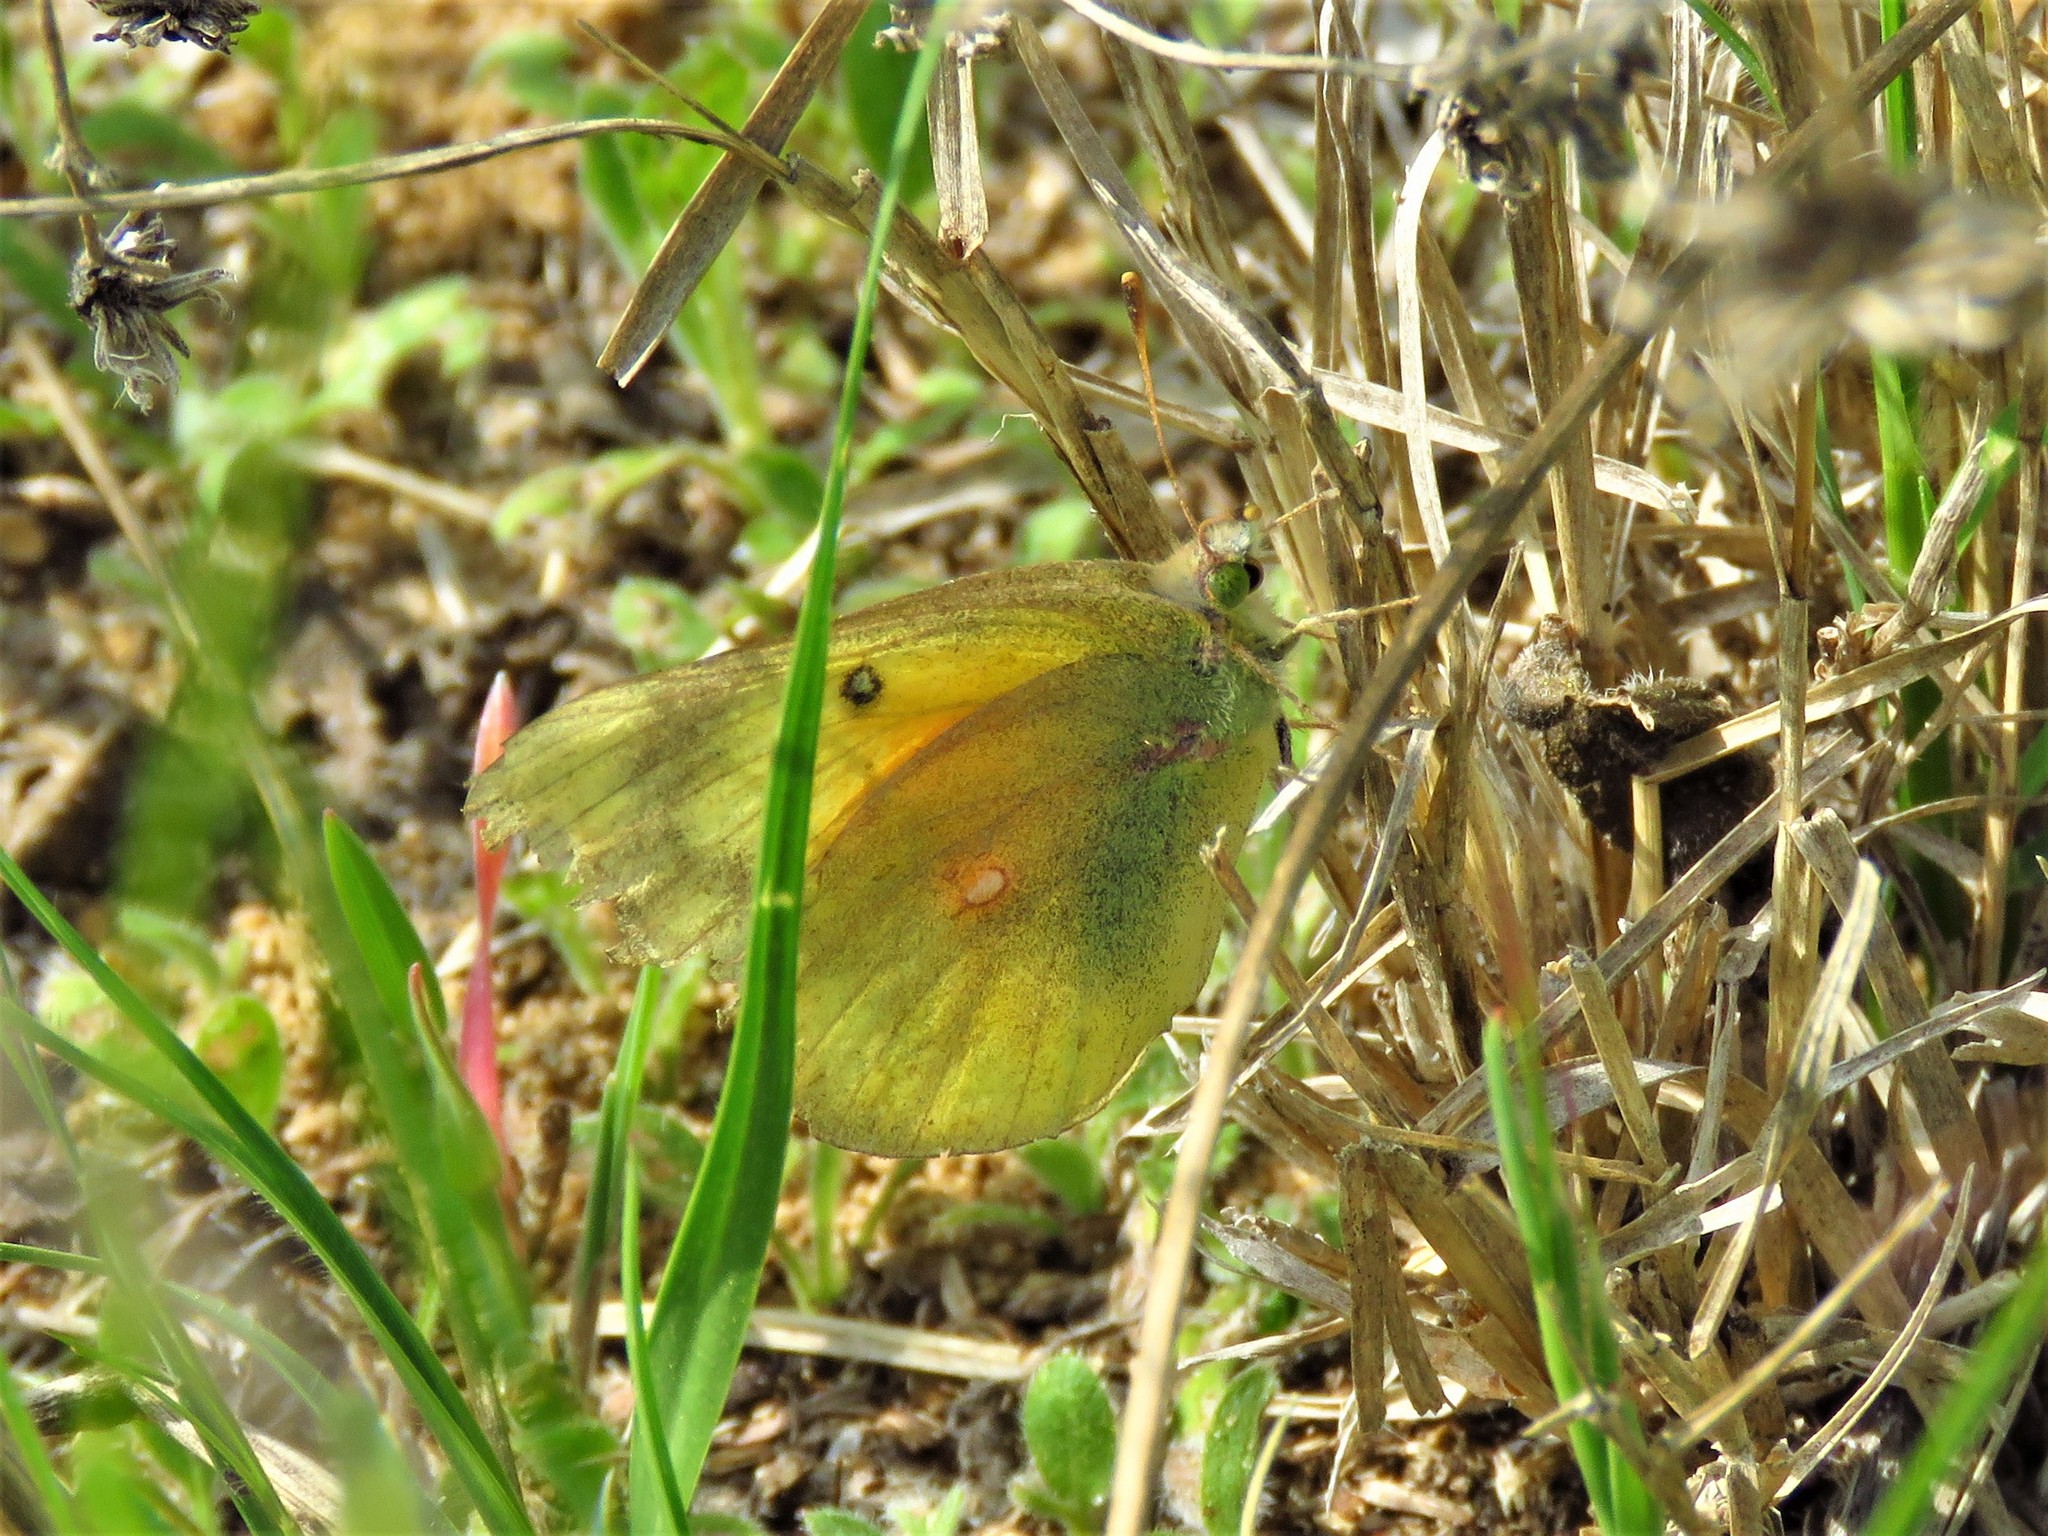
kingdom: Animalia
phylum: Arthropoda
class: Insecta
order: Lepidoptera
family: Pieridae
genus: Colias
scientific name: Colias eurytheme
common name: Alfalfa butterfly
